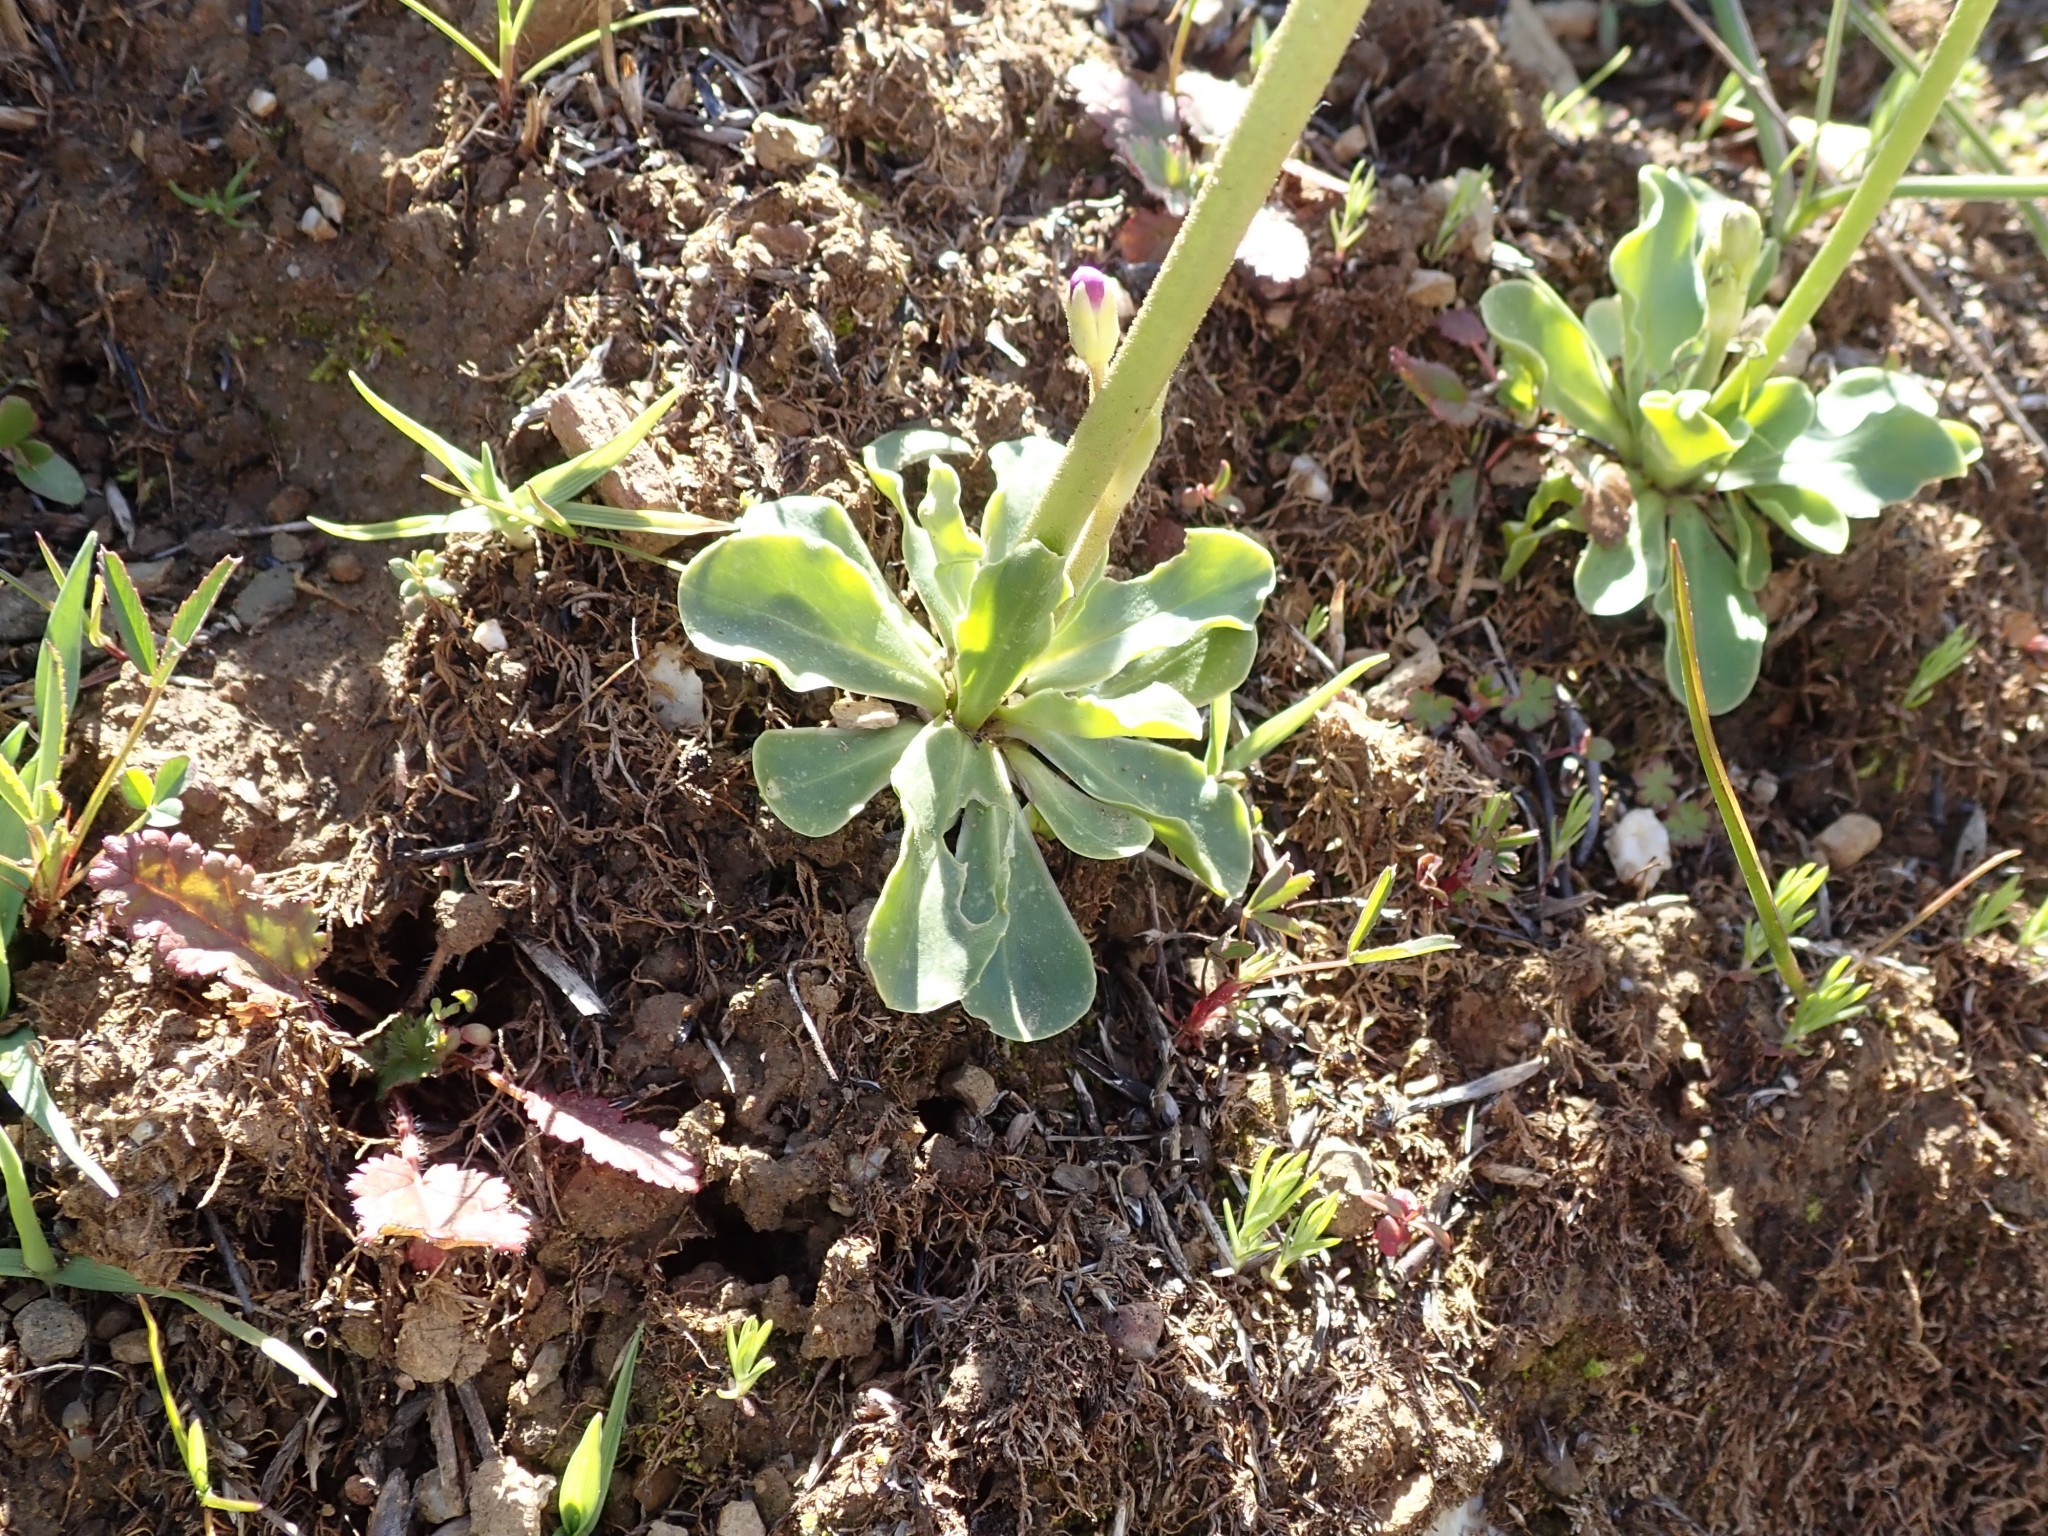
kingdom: Plantae
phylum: Tracheophyta
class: Magnoliopsida
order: Ericales
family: Primulaceae
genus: Dodecatheon
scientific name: Dodecatheon clevelandii
